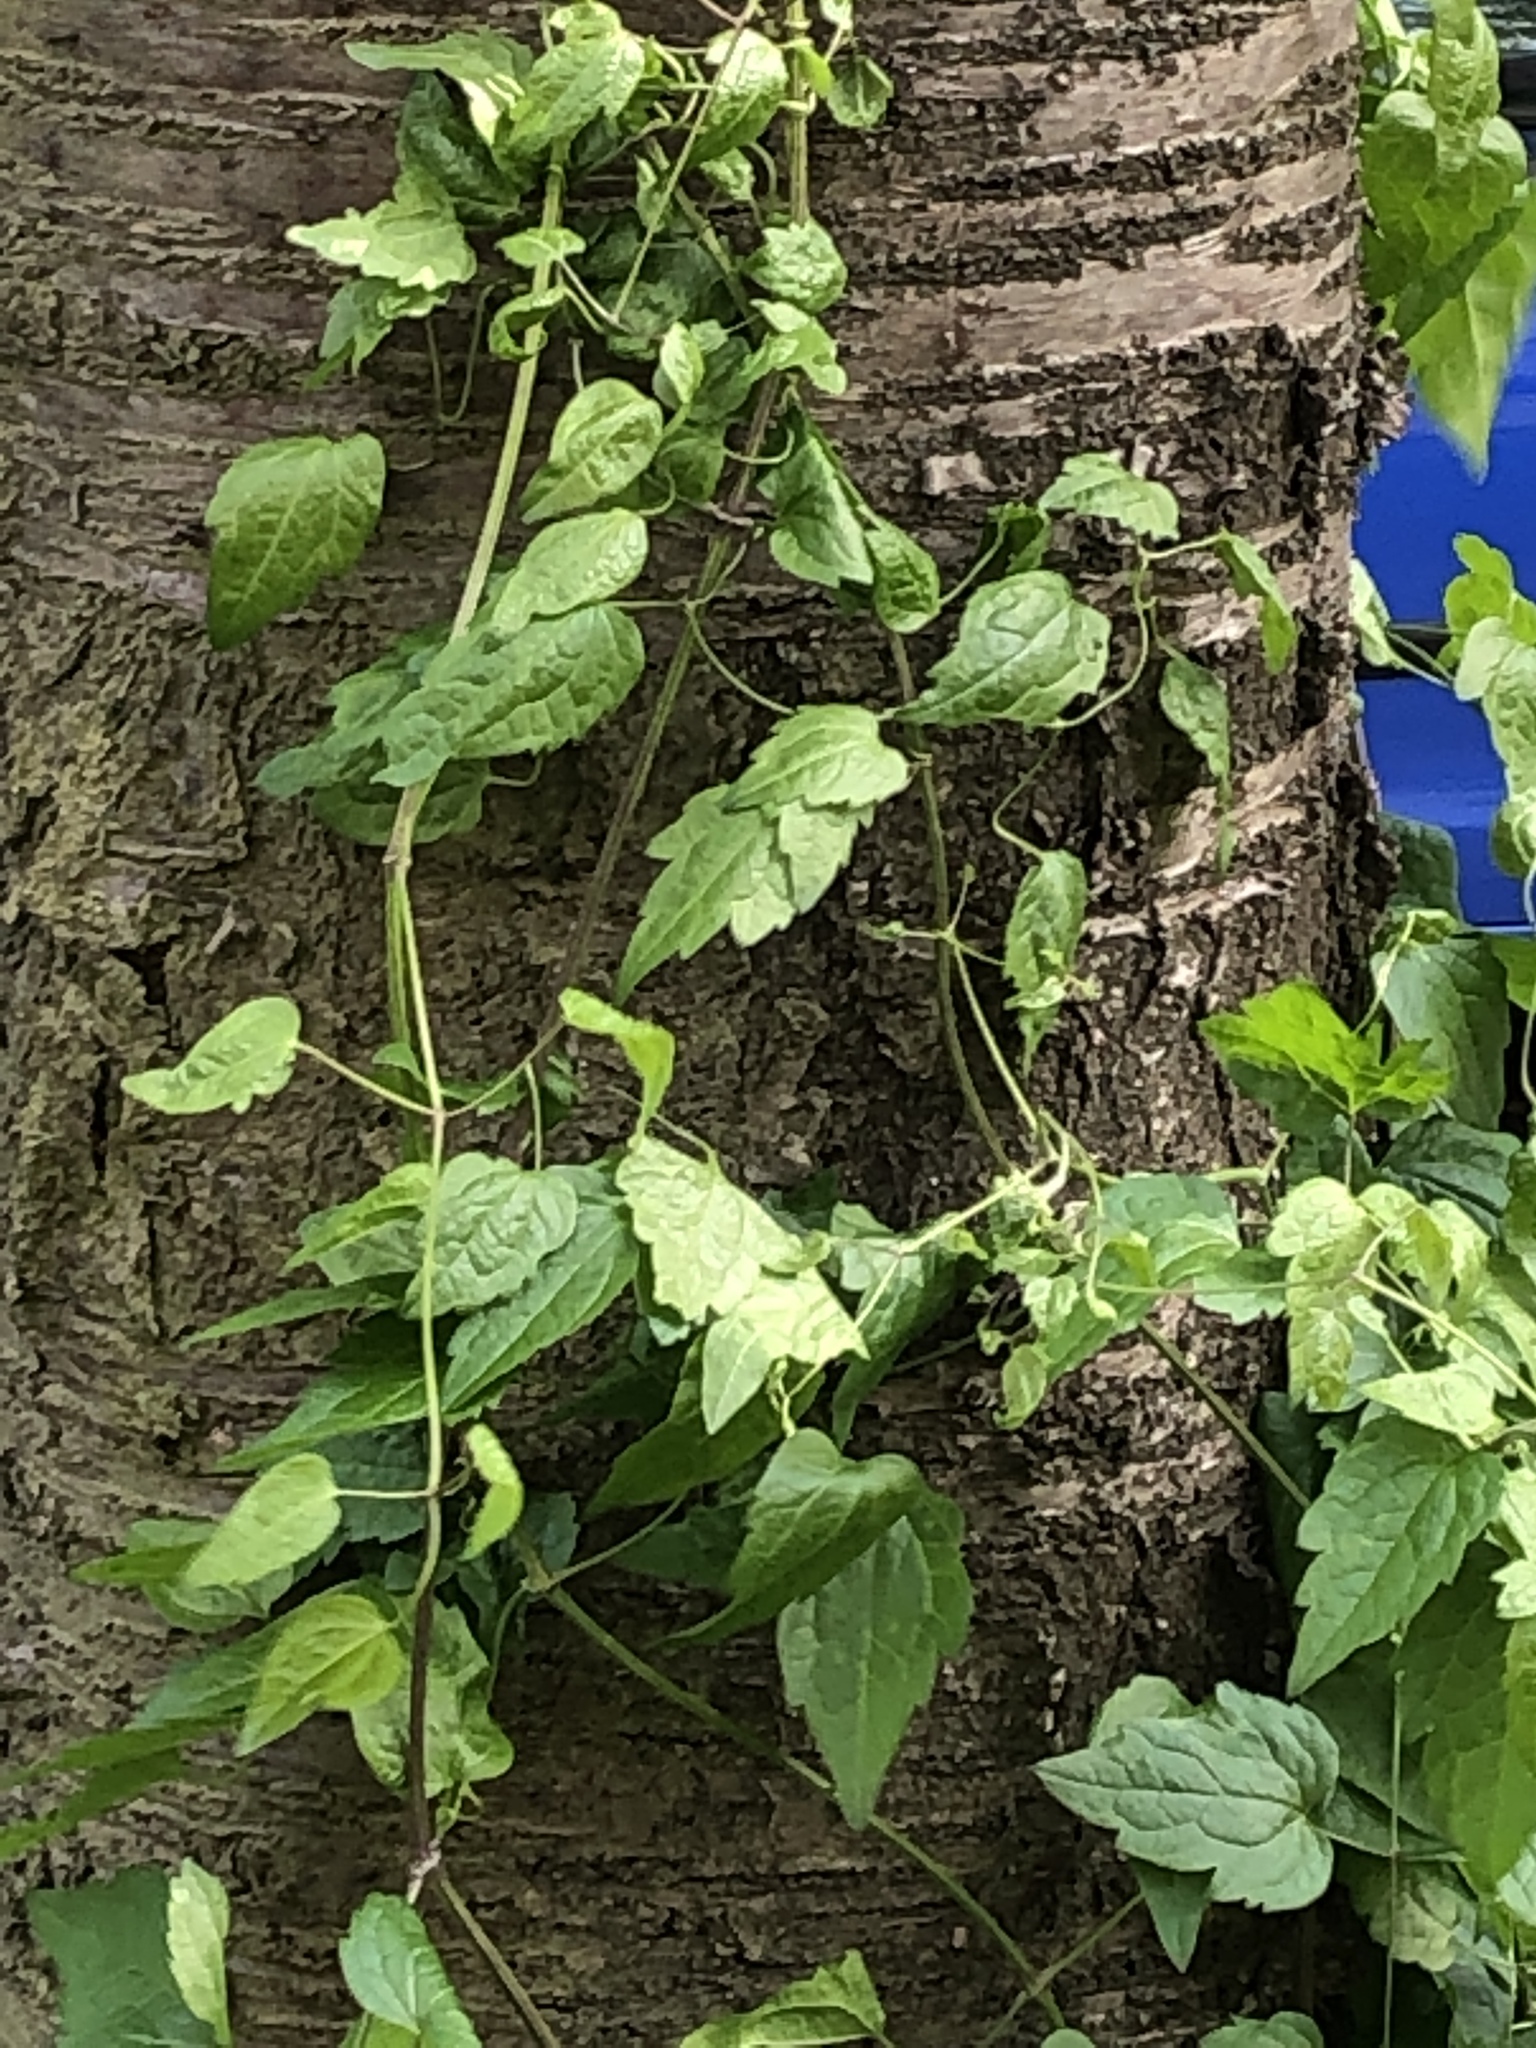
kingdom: Plantae
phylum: Tracheophyta
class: Magnoliopsida
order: Ranunculales
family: Ranunculaceae
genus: Clematis
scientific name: Clematis vitalba
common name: Evergreen clematis
